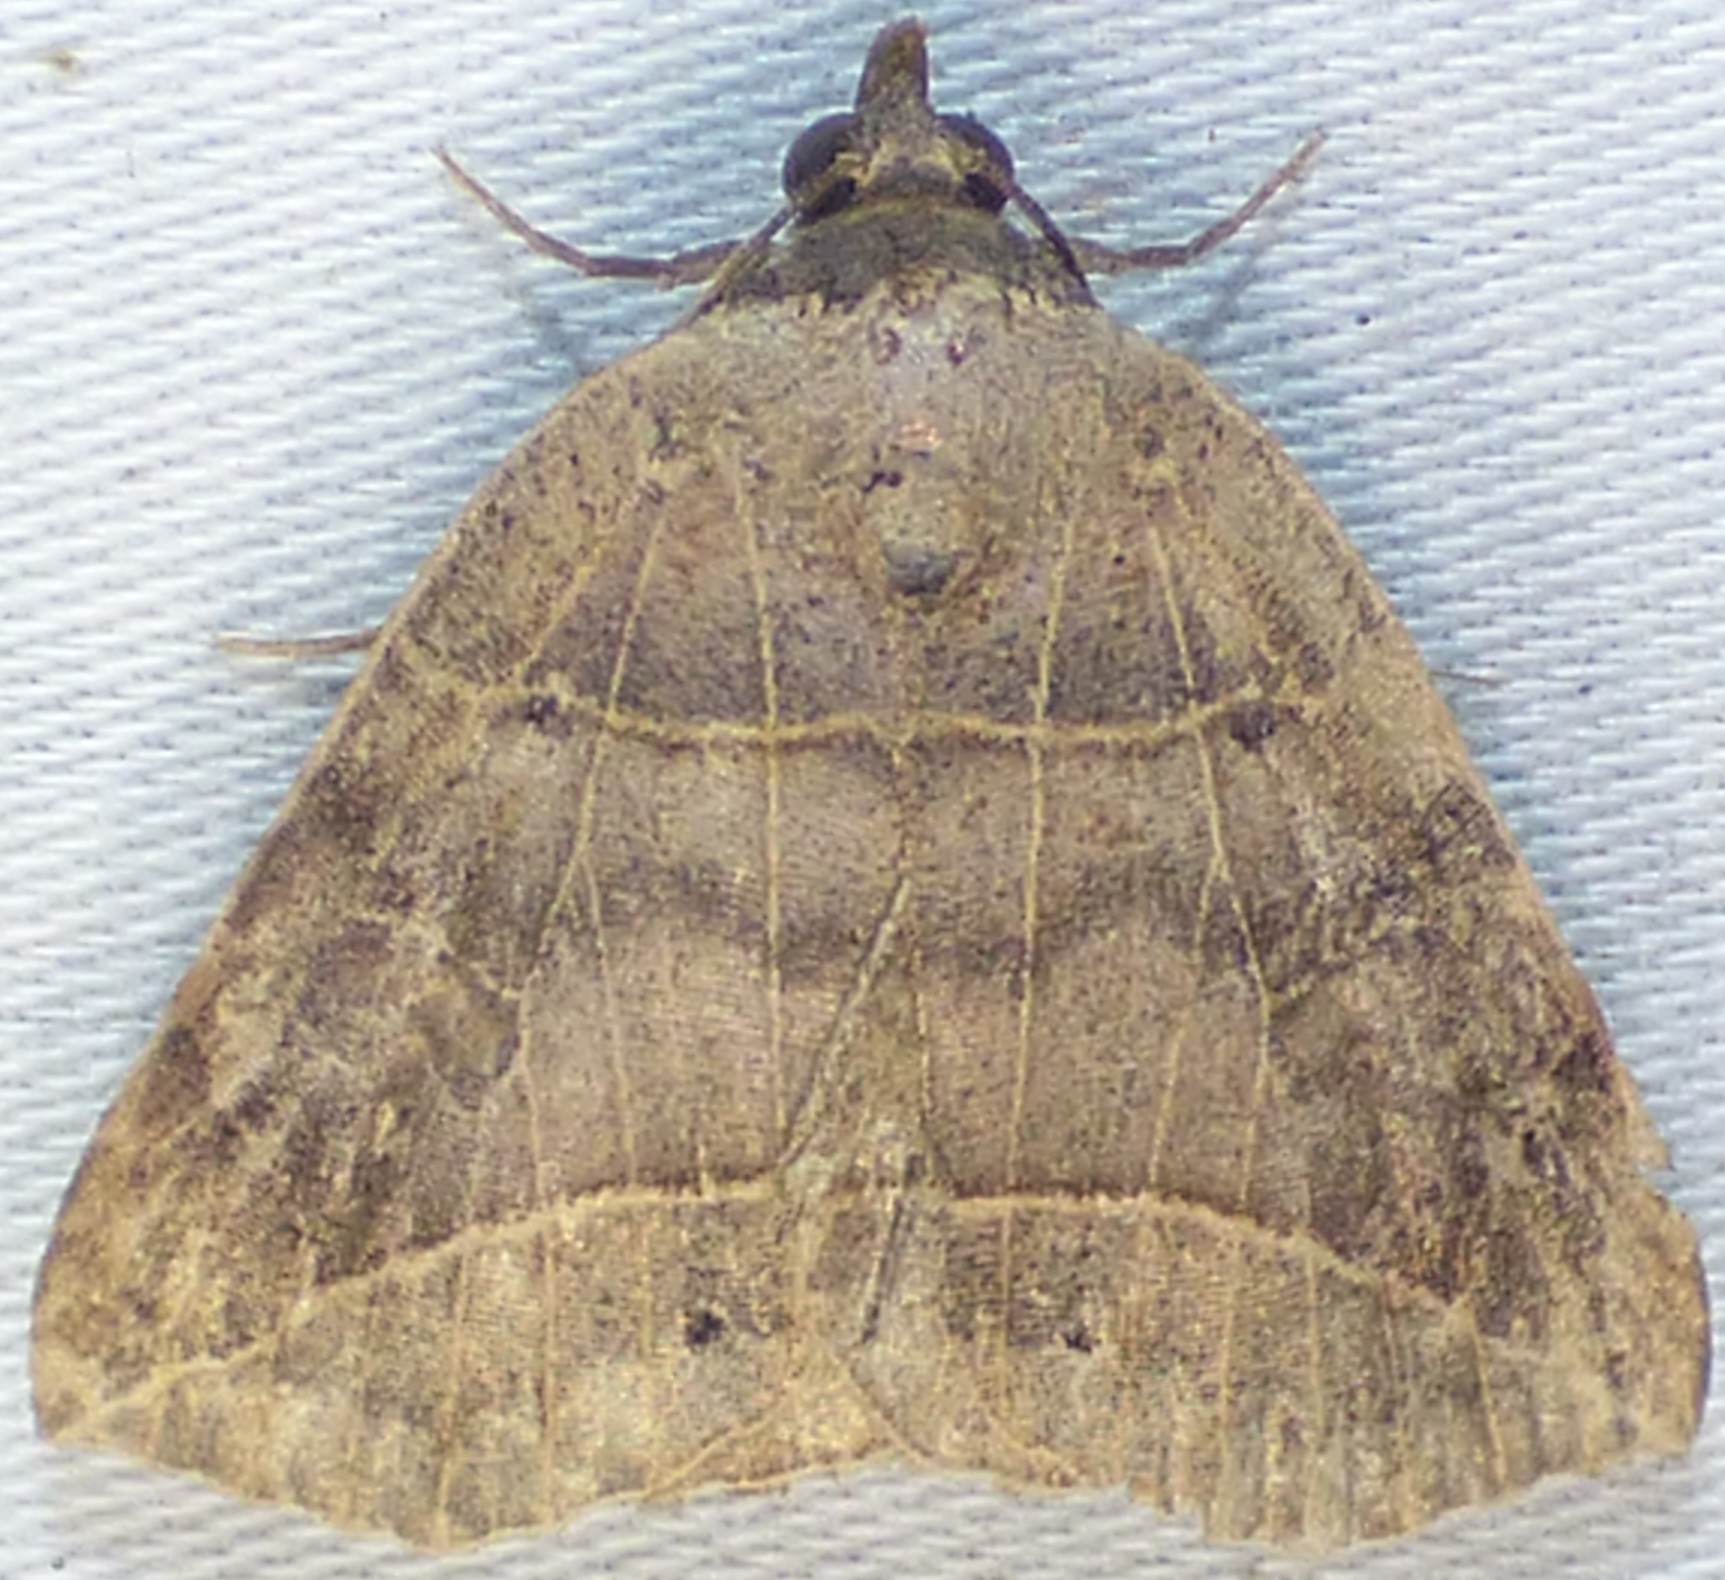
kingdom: Animalia
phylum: Arthropoda
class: Insecta
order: Lepidoptera
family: Erebidae
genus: Isogona
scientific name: Isogona tenuis
